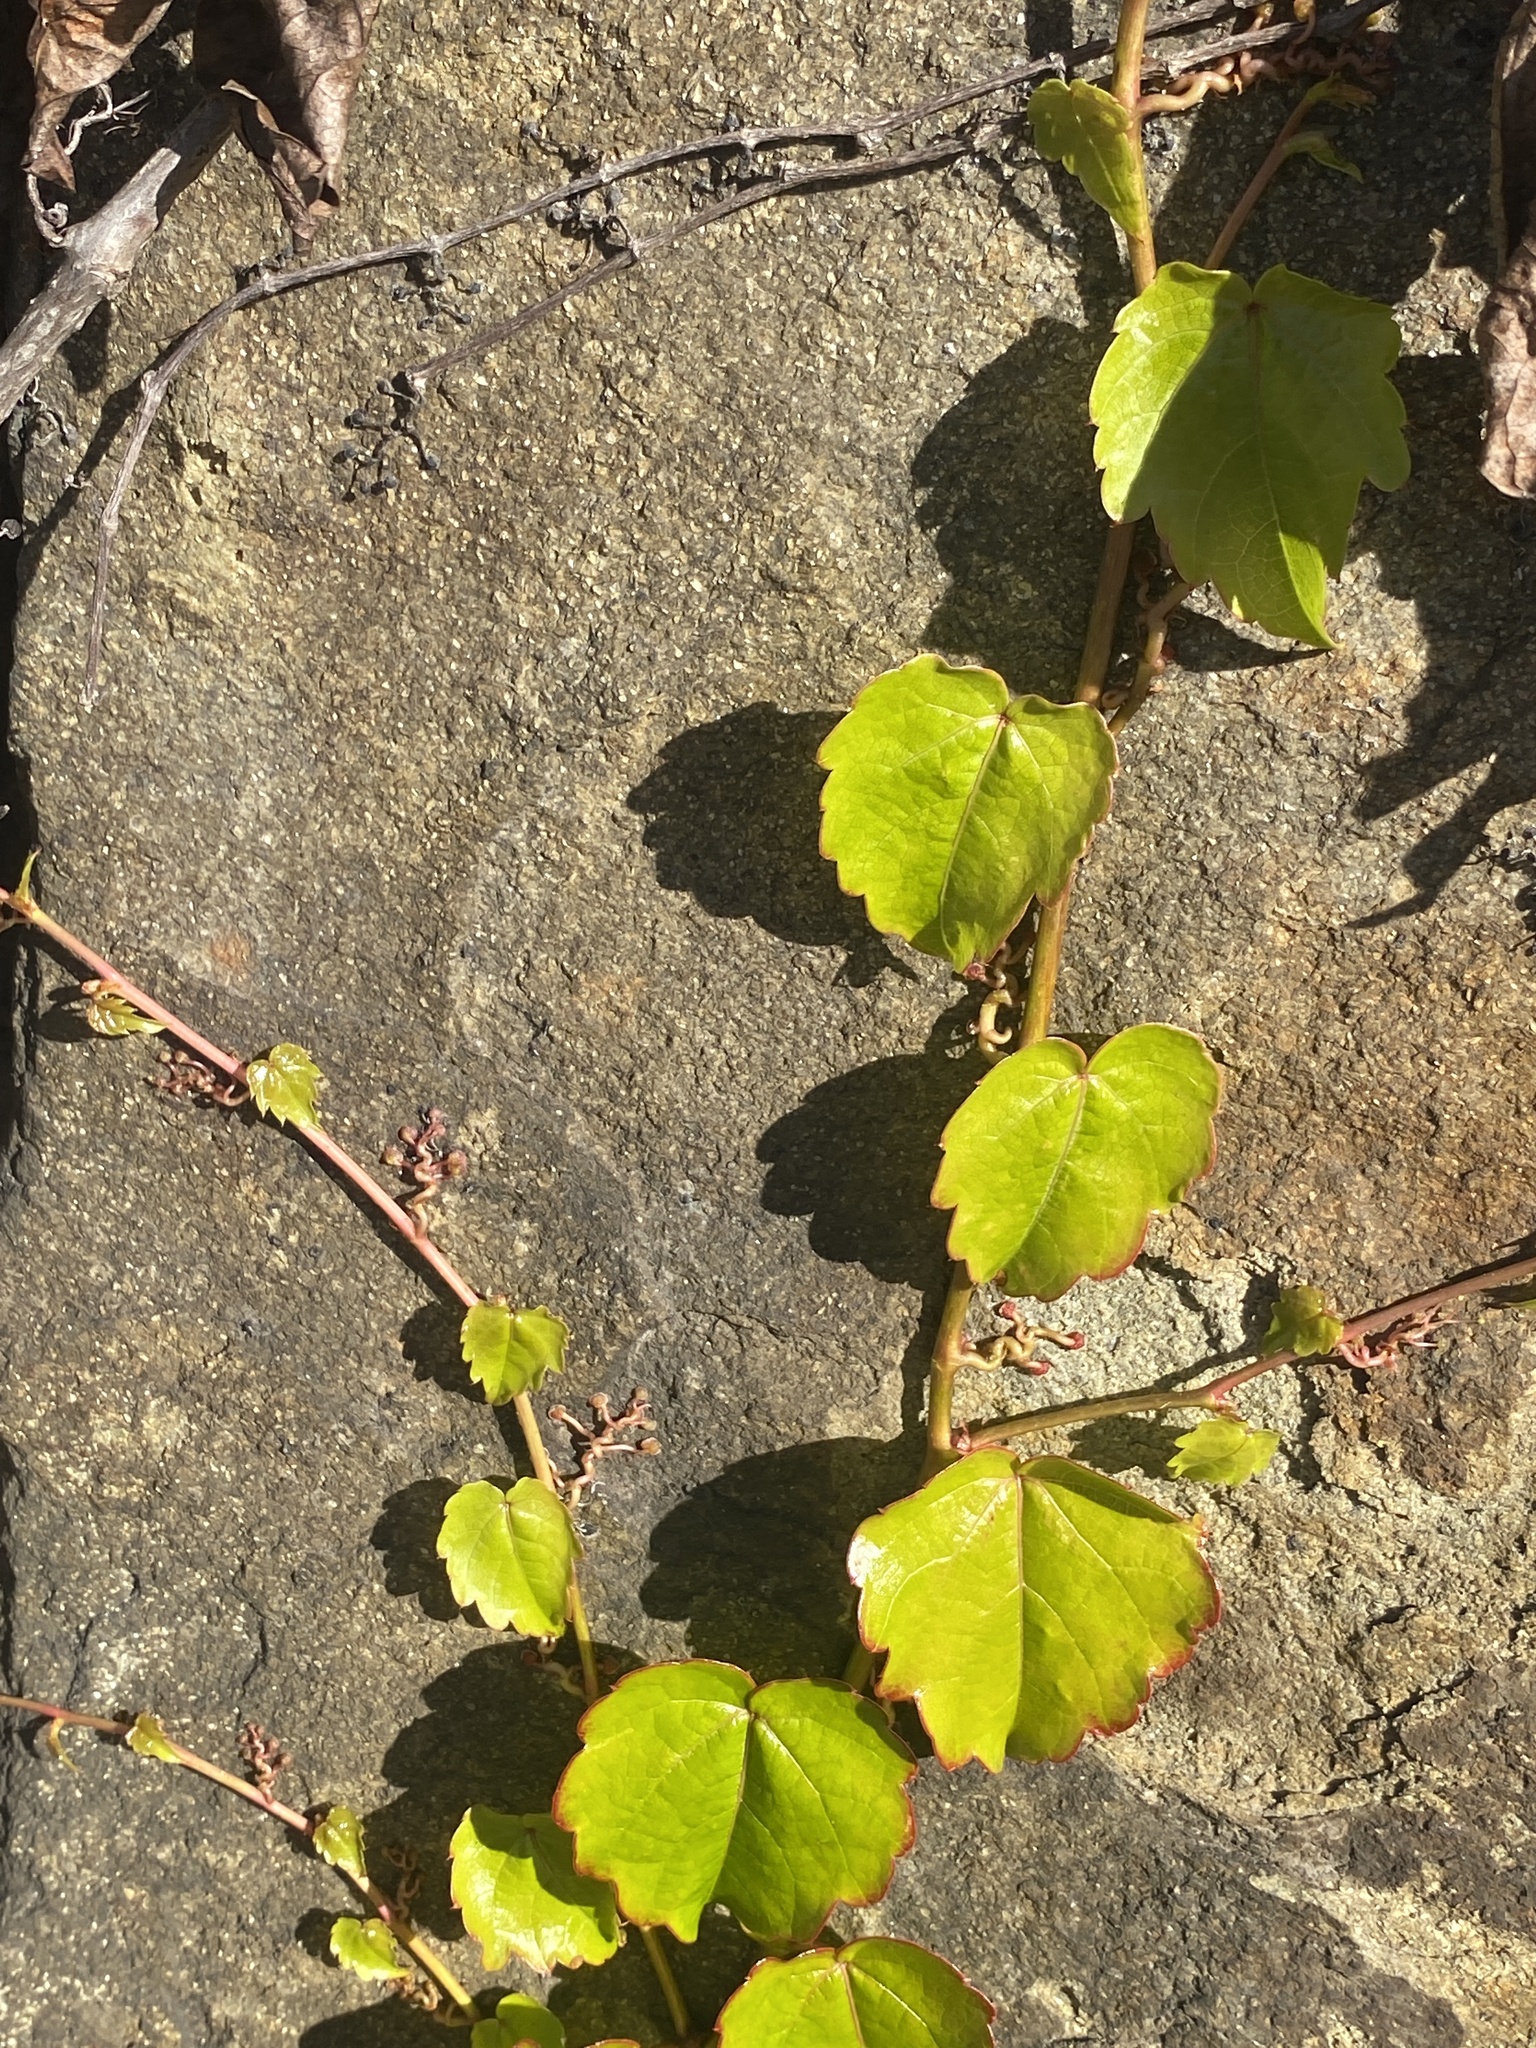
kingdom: Plantae
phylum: Tracheophyta
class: Magnoliopsida
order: Vitales
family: Vitaceae
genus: Parthenocissus
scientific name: Parthenocissus tricuspidata
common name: Boston ivy
